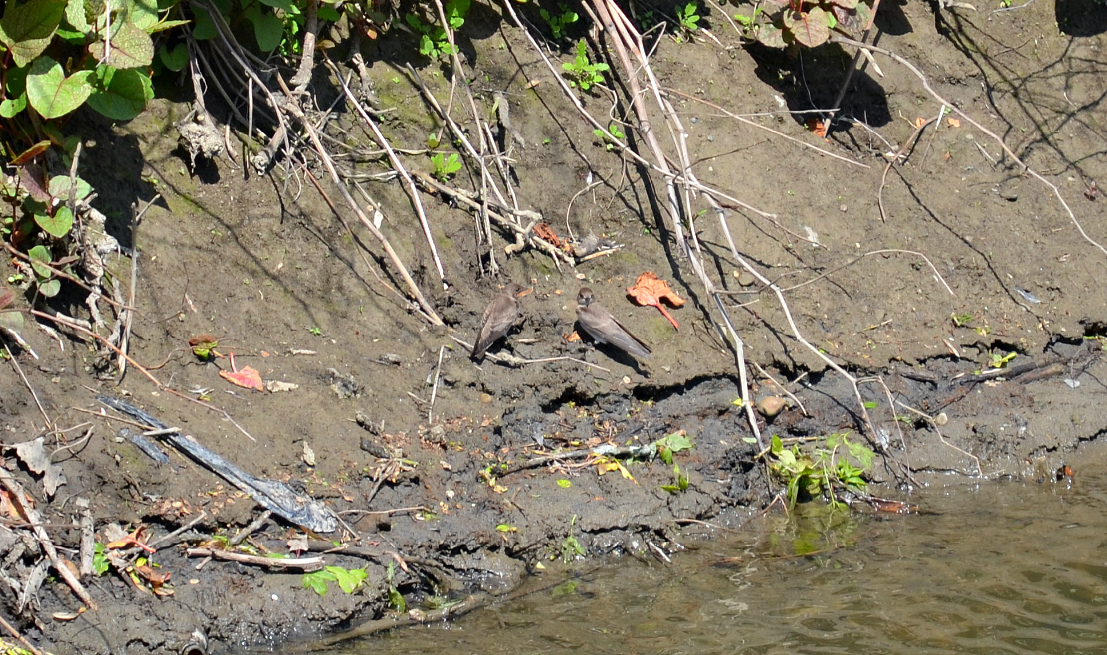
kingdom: Animalia
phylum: Chordata
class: Aves
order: Passeriformes
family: Hirundinidae
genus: Stelgidopteryx
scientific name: Stelgidopteryx serripennis
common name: Northern rough-winged swallow
